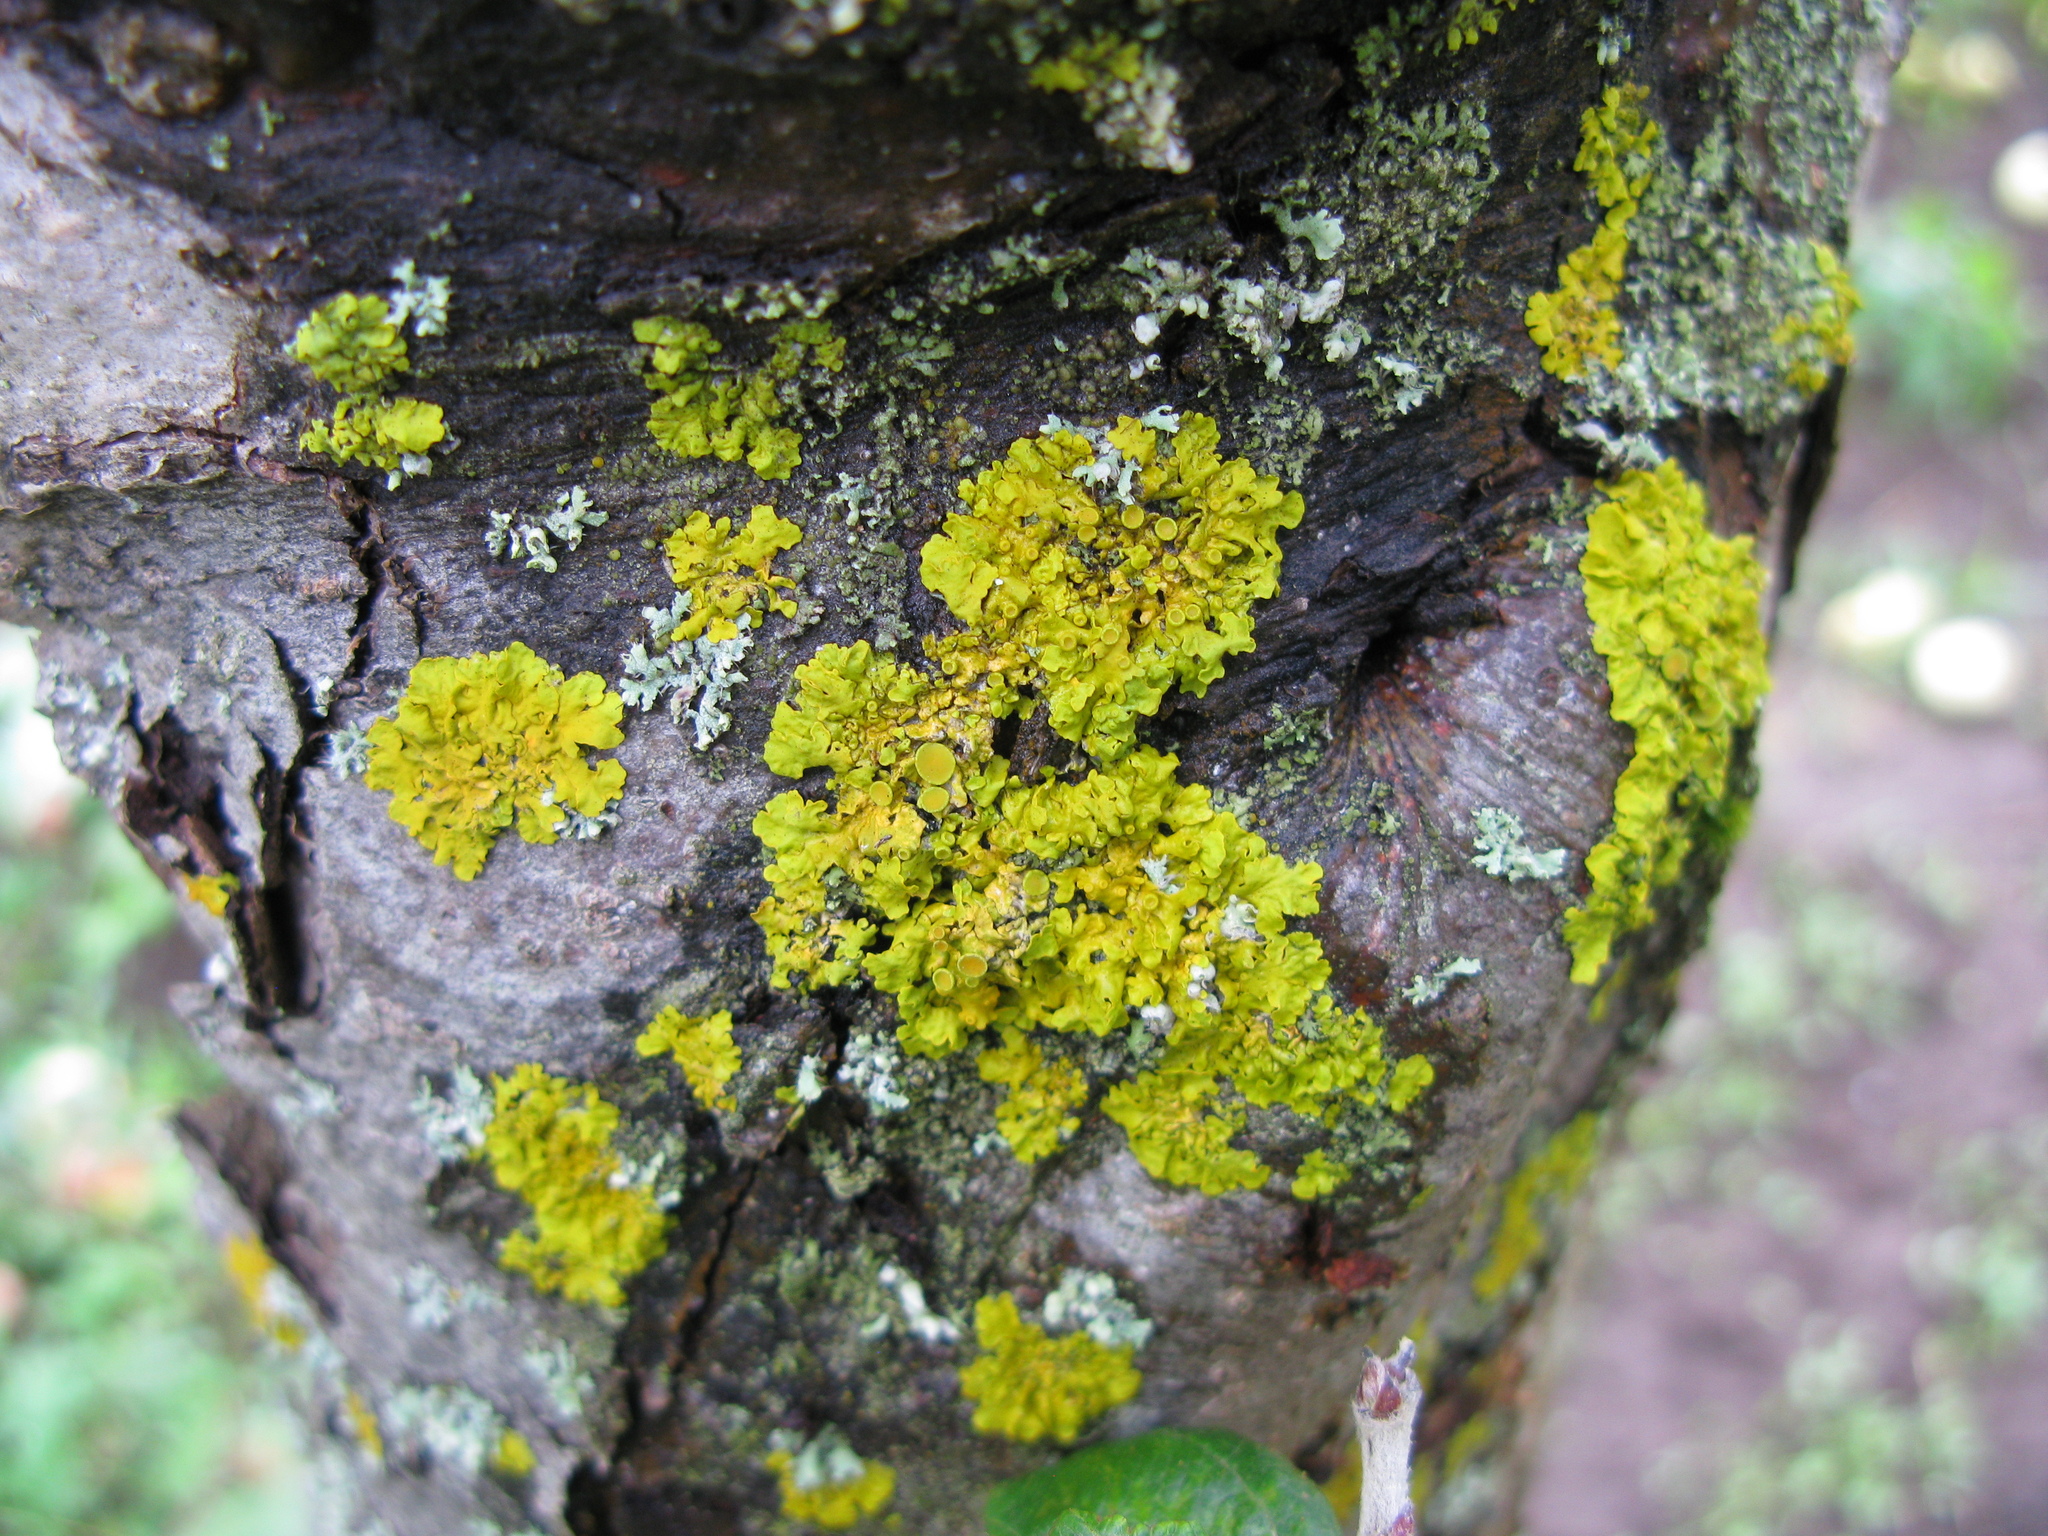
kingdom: Fungi
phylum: Ascomycota
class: Lecanoromycetes
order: Teloschistales
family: Teloschistaceae
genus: Xanthoria
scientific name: Xanthoria parietina
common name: Common orange lichen
